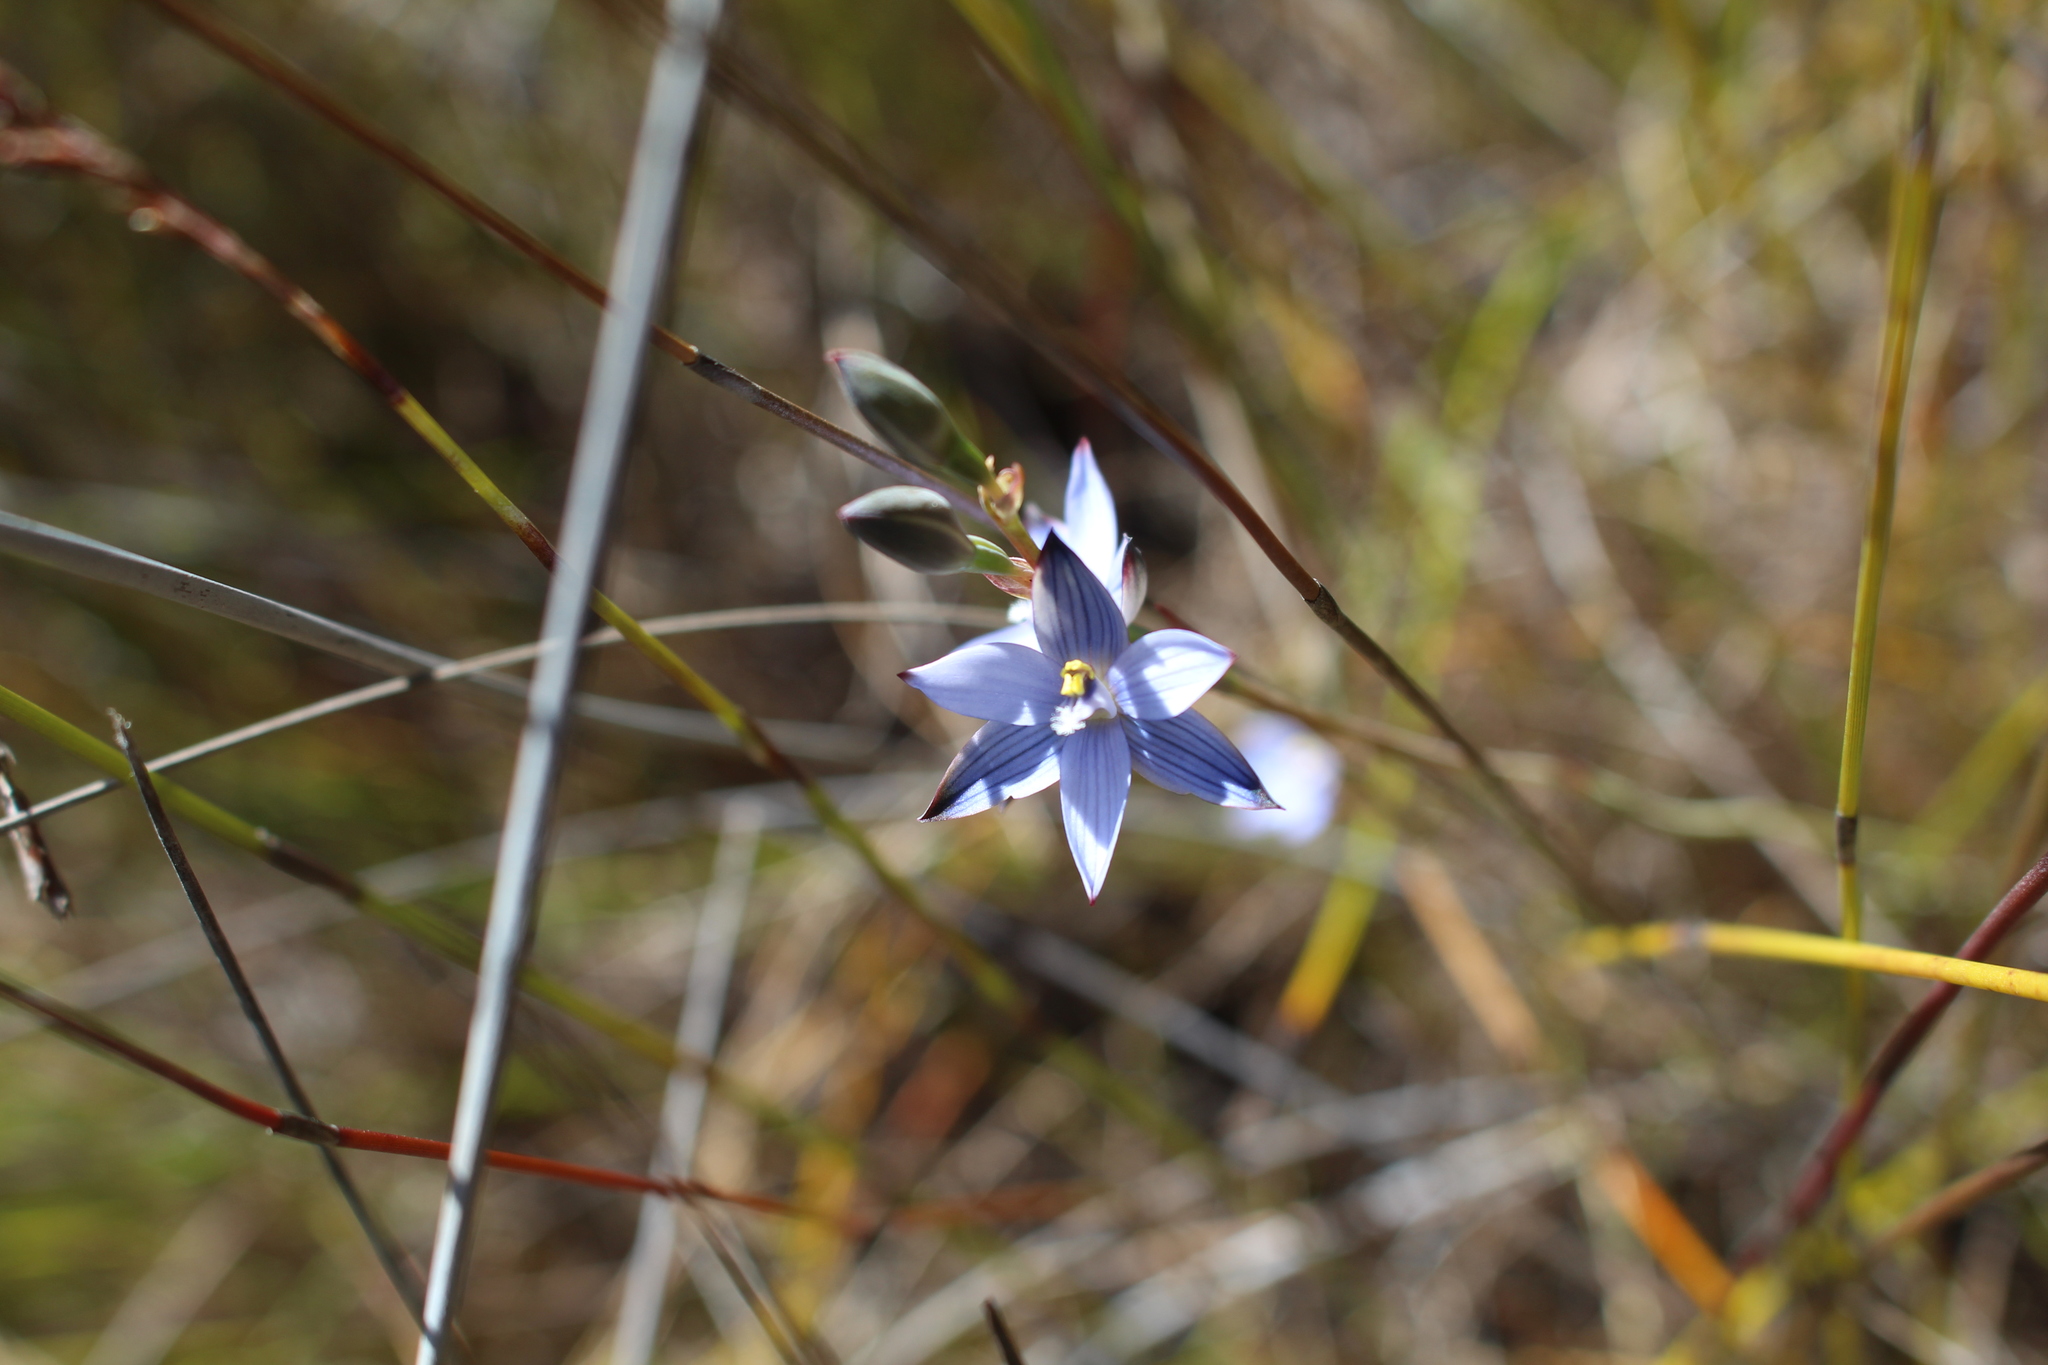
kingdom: Plantae
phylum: Tracheophyta
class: Liliopsida
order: Asparagales
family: Orchidaceae
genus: Thelymitra
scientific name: Thelymitra canaliculata
